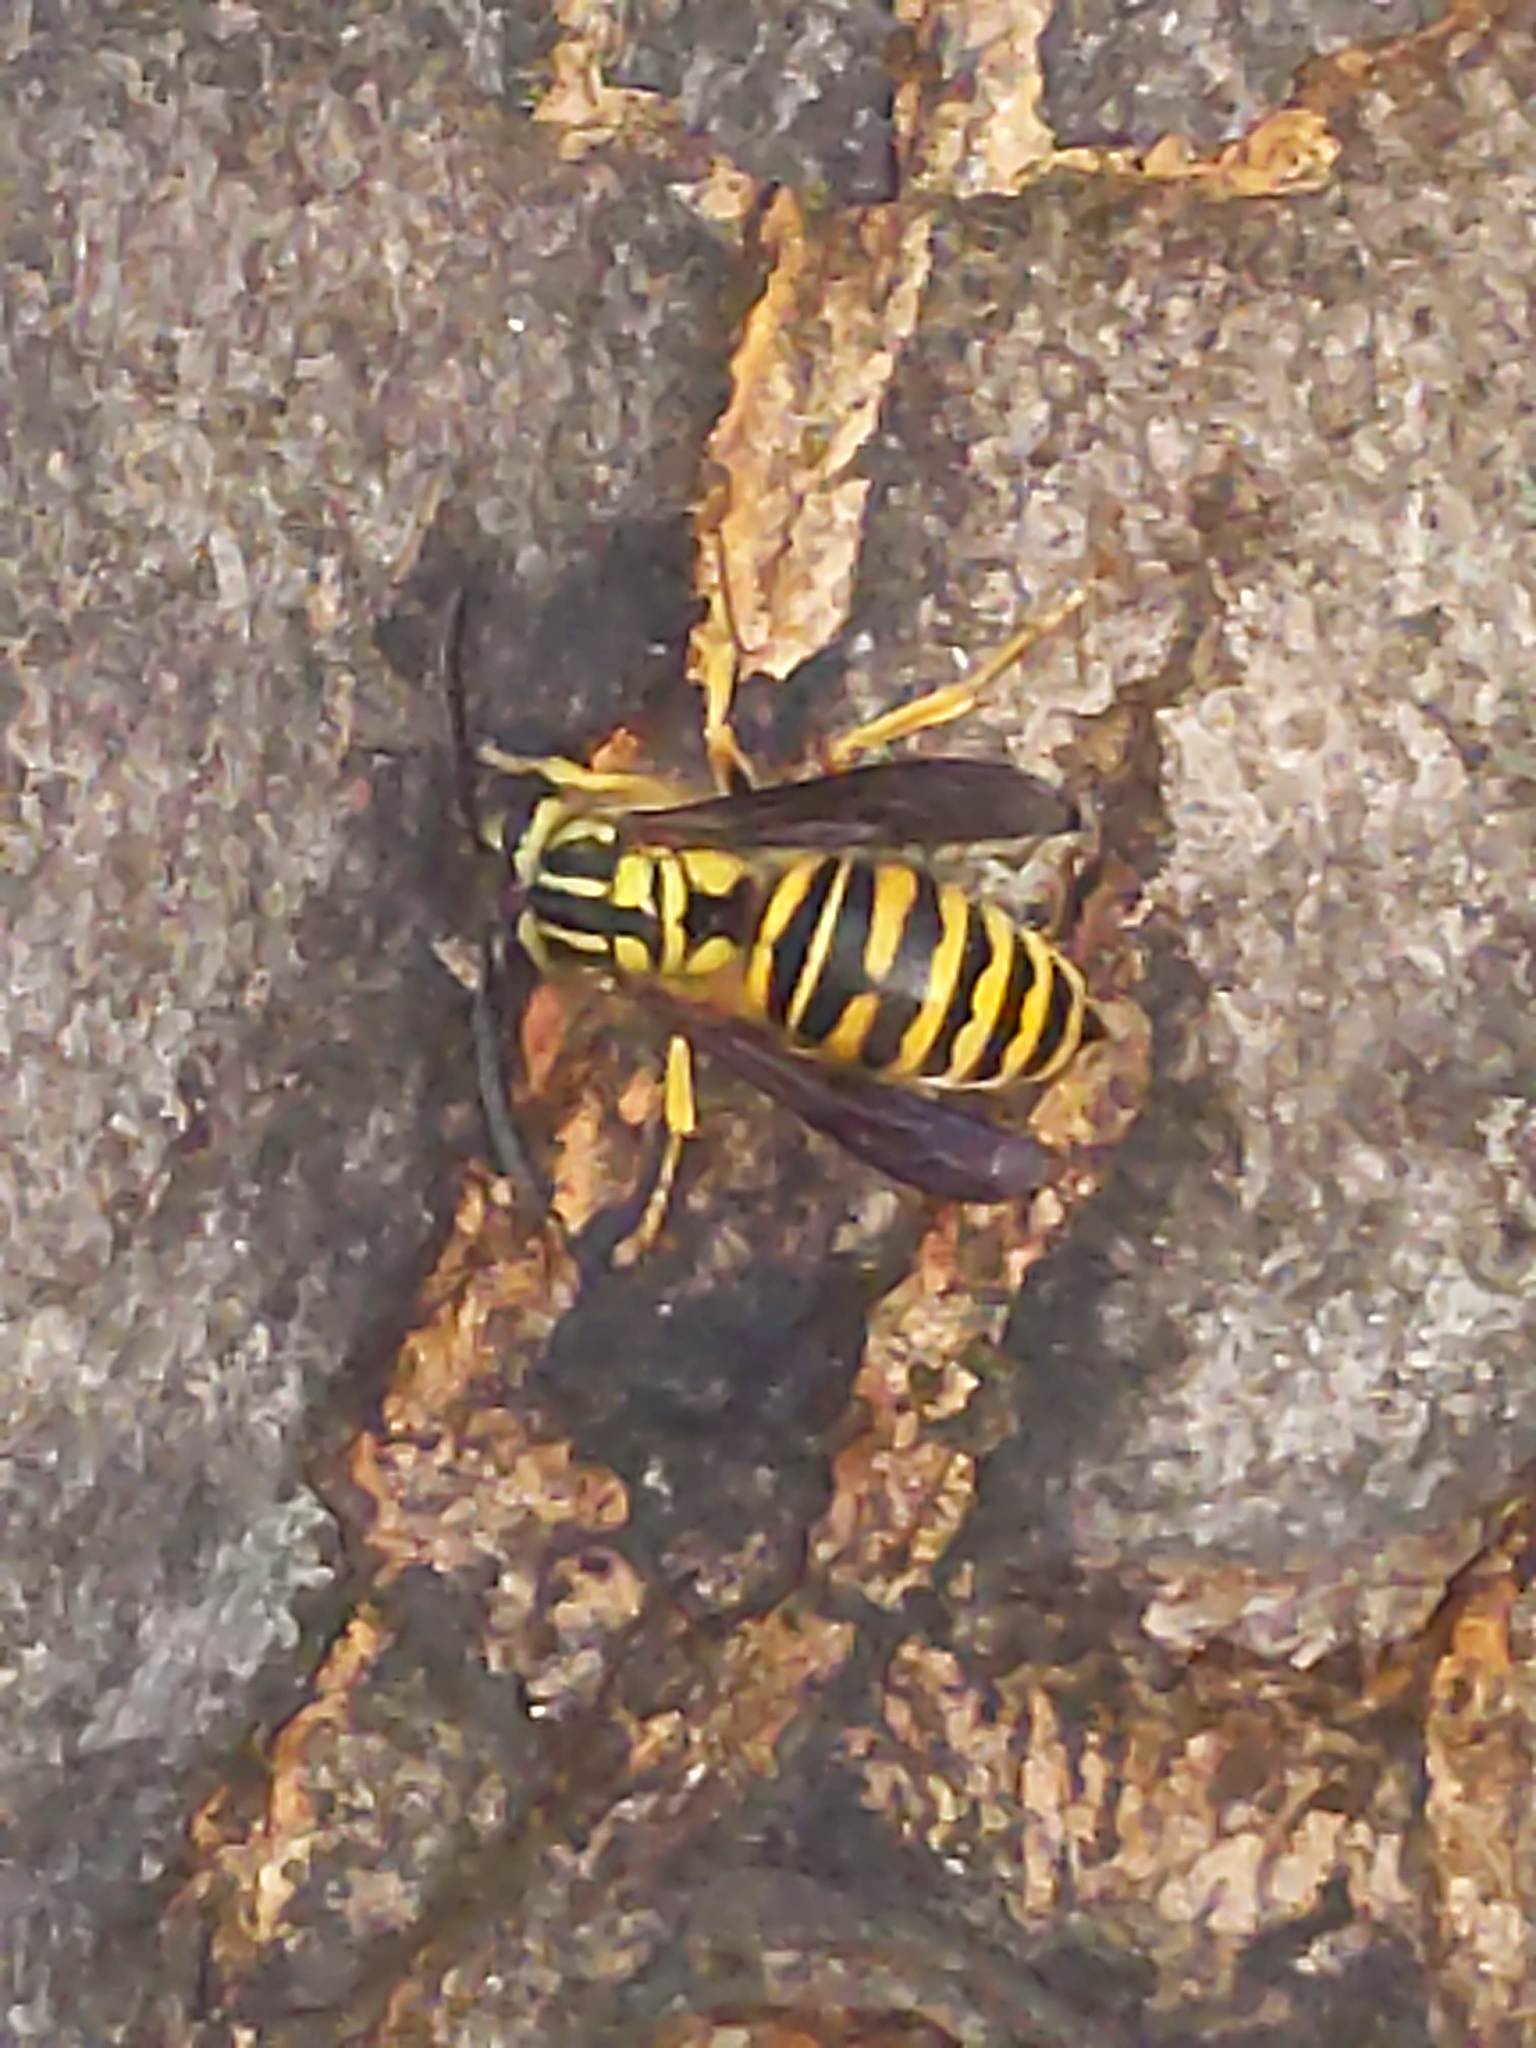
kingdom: Animalia
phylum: Arthropoda
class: Insecta
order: Hymenoptera
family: Vespidae
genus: Vespula
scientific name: Vespula squamosa
